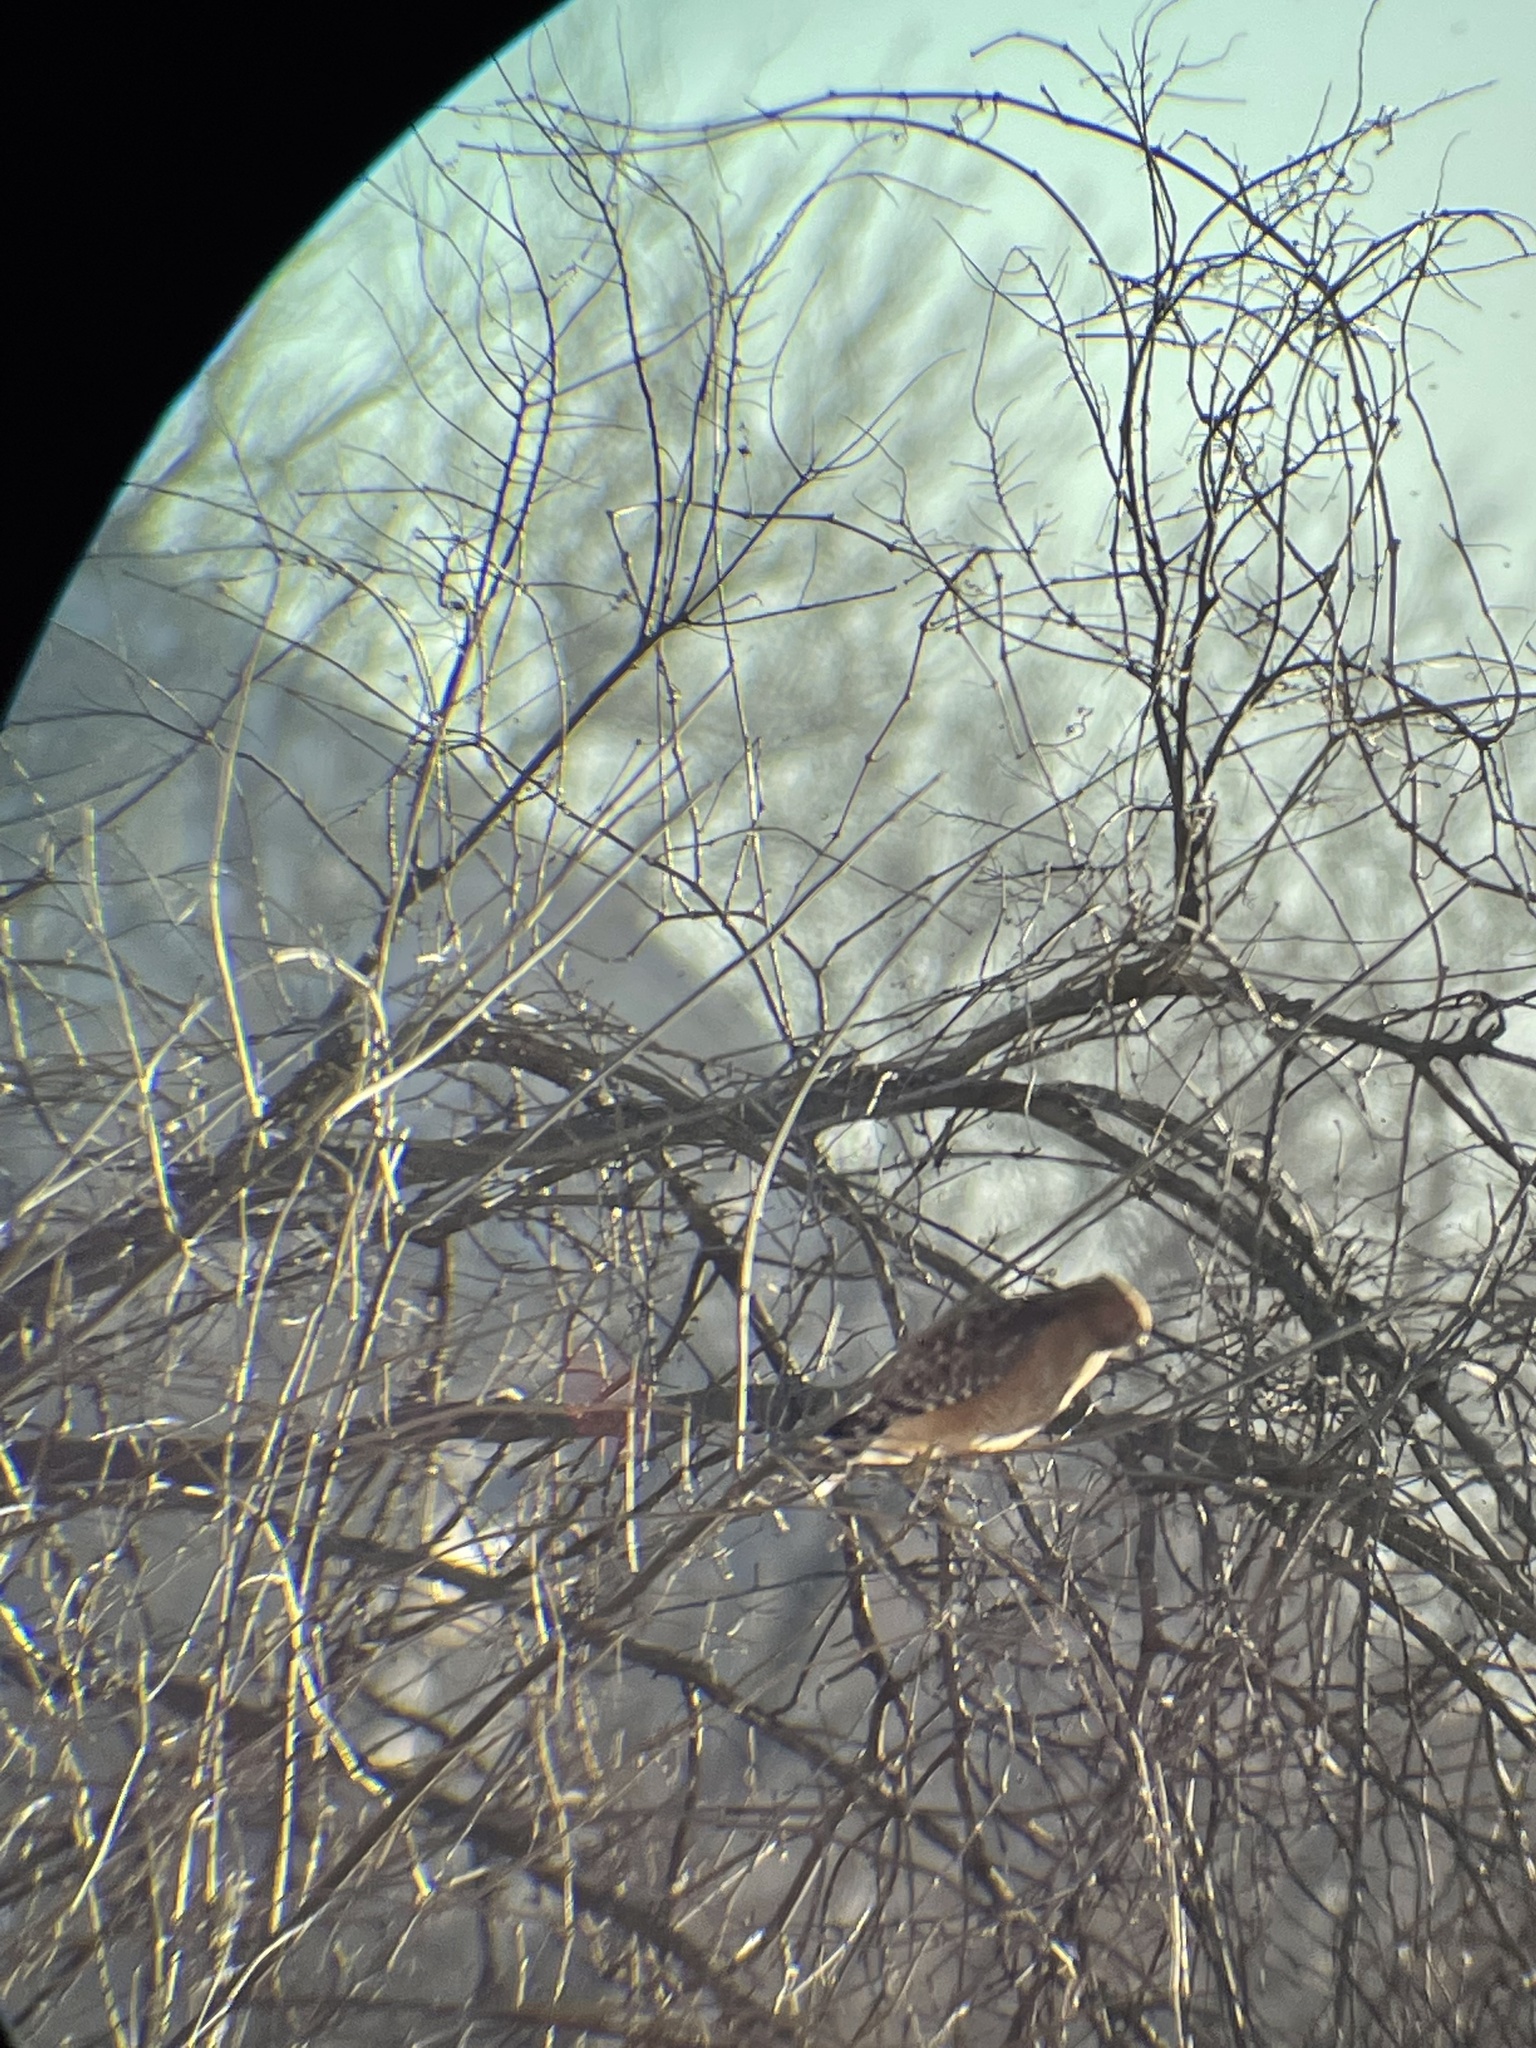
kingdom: Animalia
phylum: Chordata
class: Aves
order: Accipitriformes
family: Accipitridae
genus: Buteo
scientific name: Buteo lineatus
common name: Red-shouldered hawk
